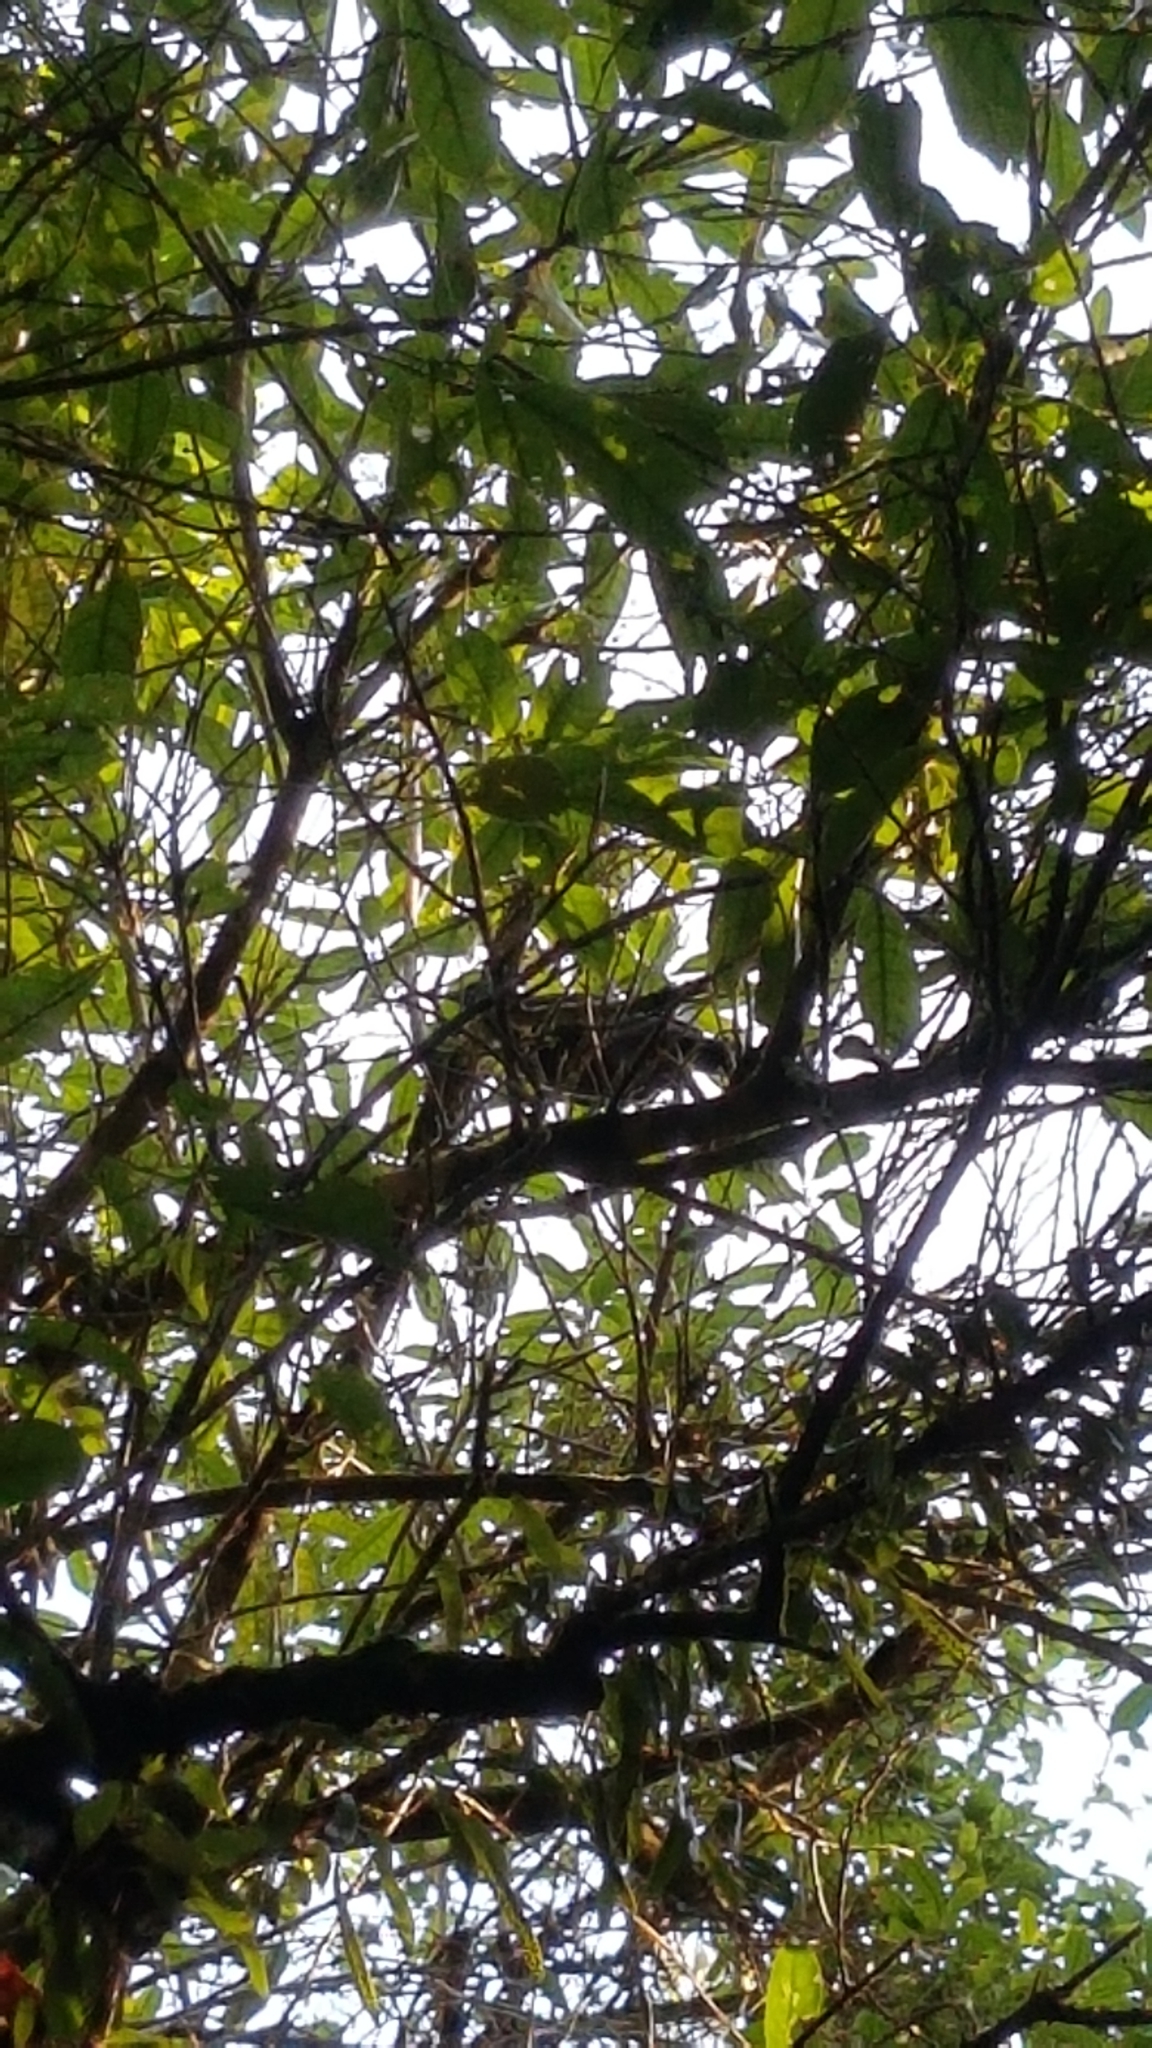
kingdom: Animalia
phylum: Chordata
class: Aves
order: Passeriformes
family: Callaeatidae
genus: Callaeas
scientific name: Callaeas cinereus
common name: South island kokako
